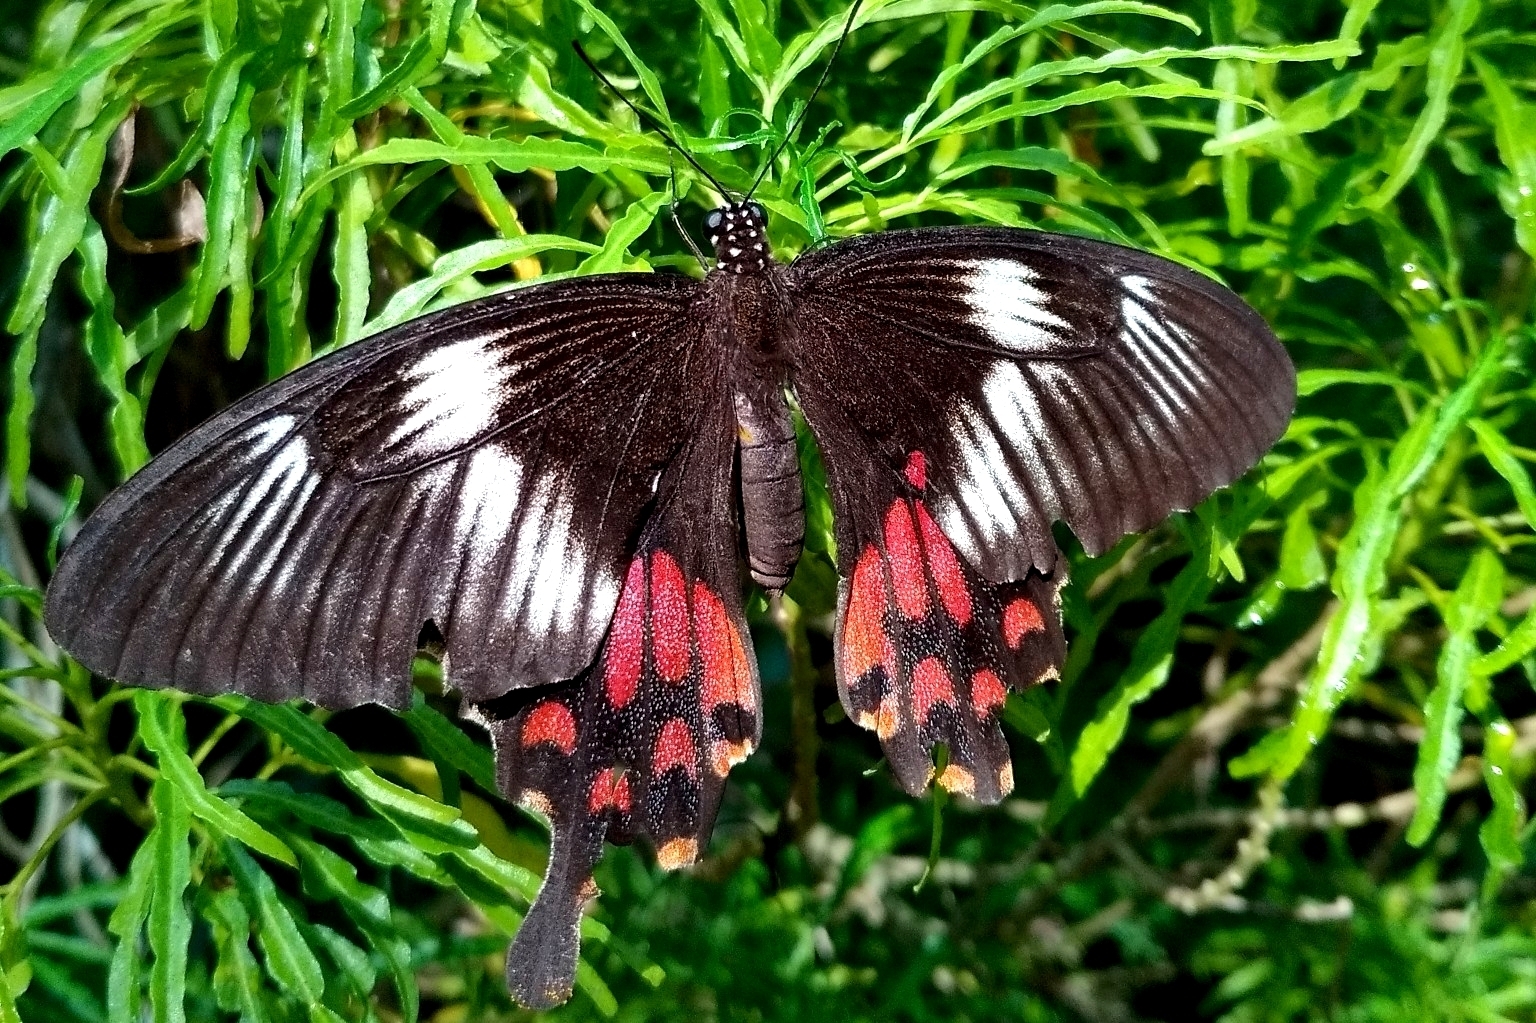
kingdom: Animalia
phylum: Arthropoda
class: Insecta
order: Lepidoptera
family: Papilionidae
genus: Papilio
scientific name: Papilio polytes
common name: Common mormon
